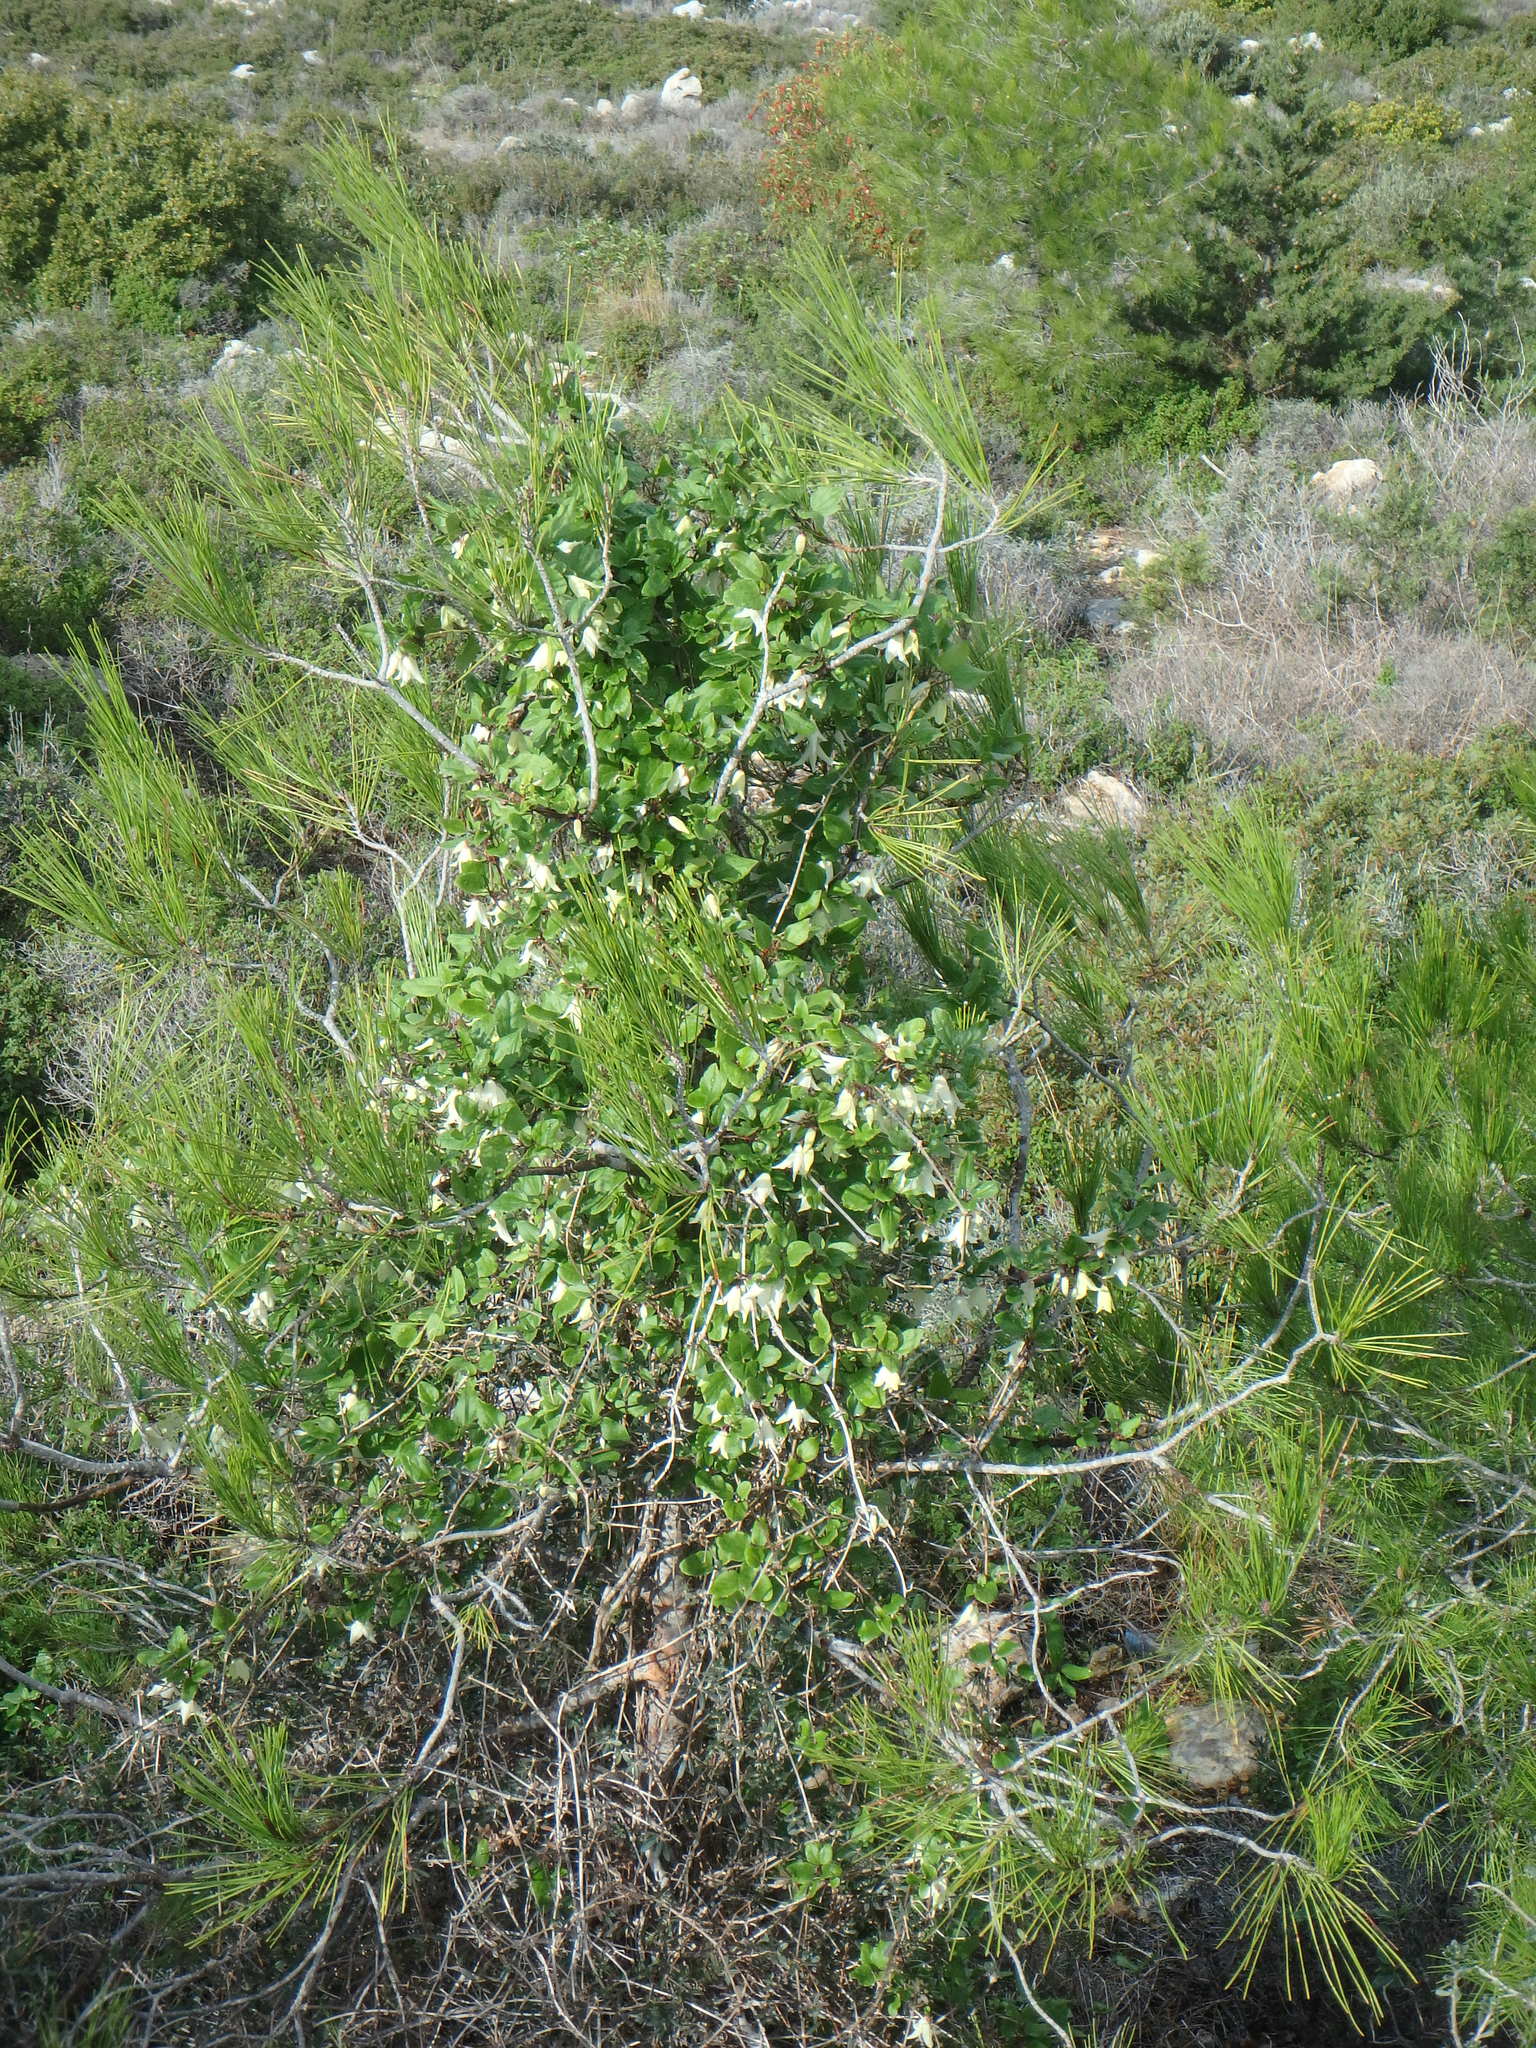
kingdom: Plantae
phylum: Tracheophyta
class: Magnoliopsida
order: Ranunculales
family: Ranunculaceae
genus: Clematis
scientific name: Clematis cirrhosa
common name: Early virgin's-bower
